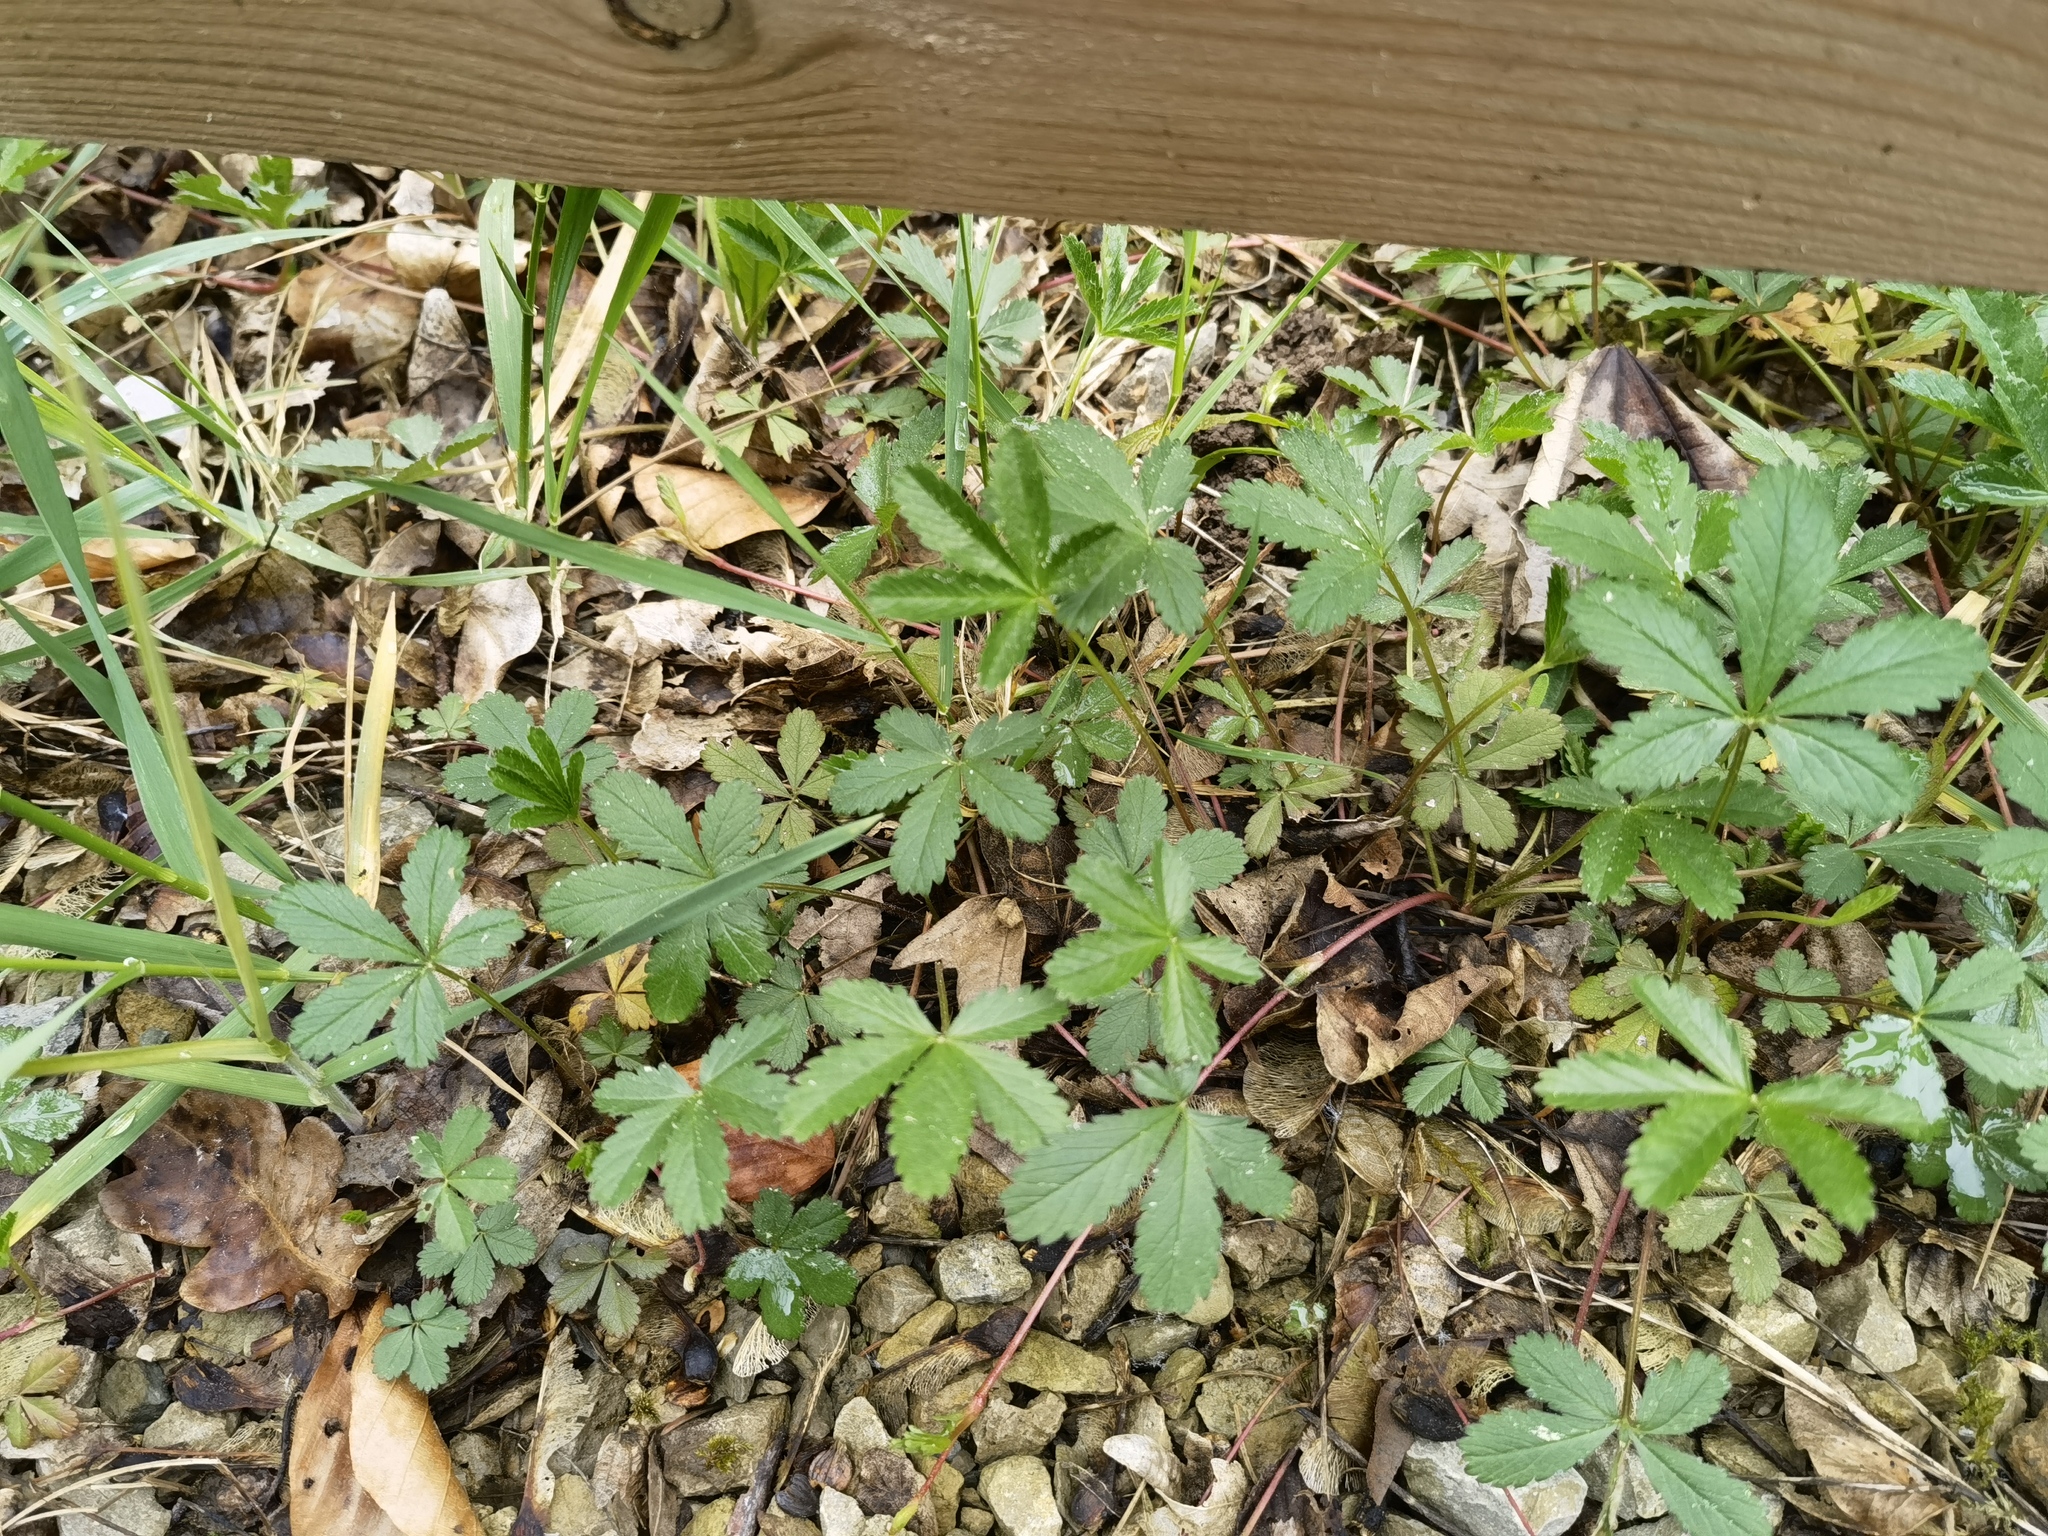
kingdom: Plantae
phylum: Tracheophyta
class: Magnoliopsida
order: Rosales
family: Rosaceae
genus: Potentilla
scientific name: Potentilla reptans
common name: Creeping cinquefoil
